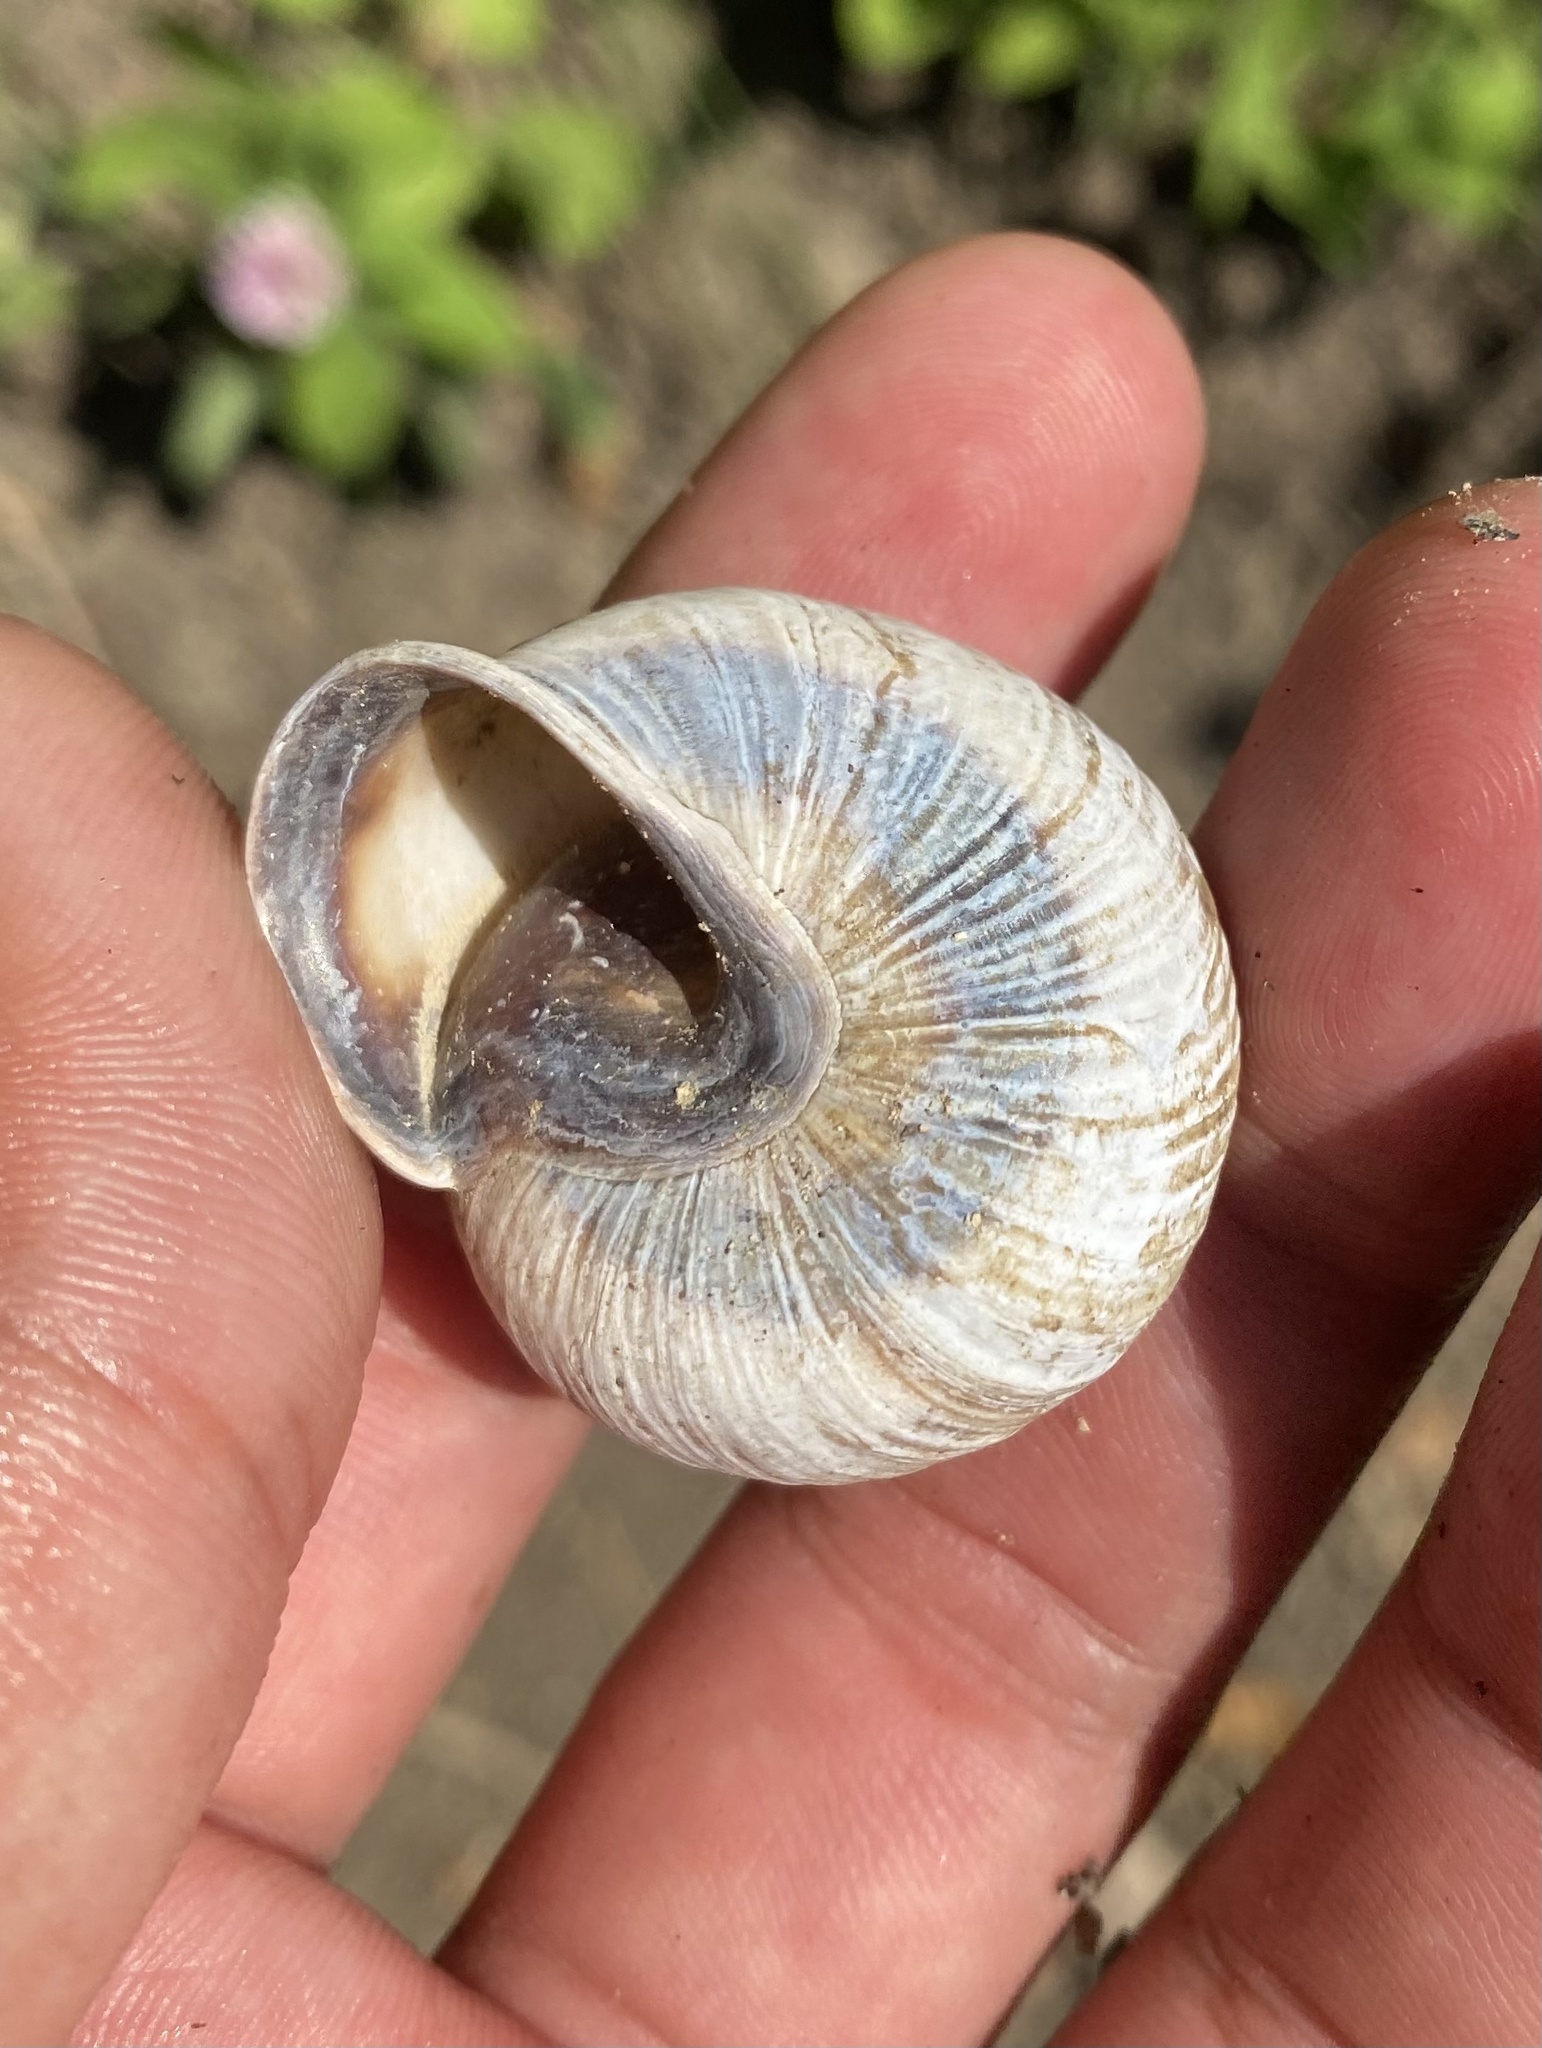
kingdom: Animalia
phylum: Mollusca
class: Gastropoda
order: Stylommatophora
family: Helicidae
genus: Caucasotachea
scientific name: Caucasotachea atrolabiata
